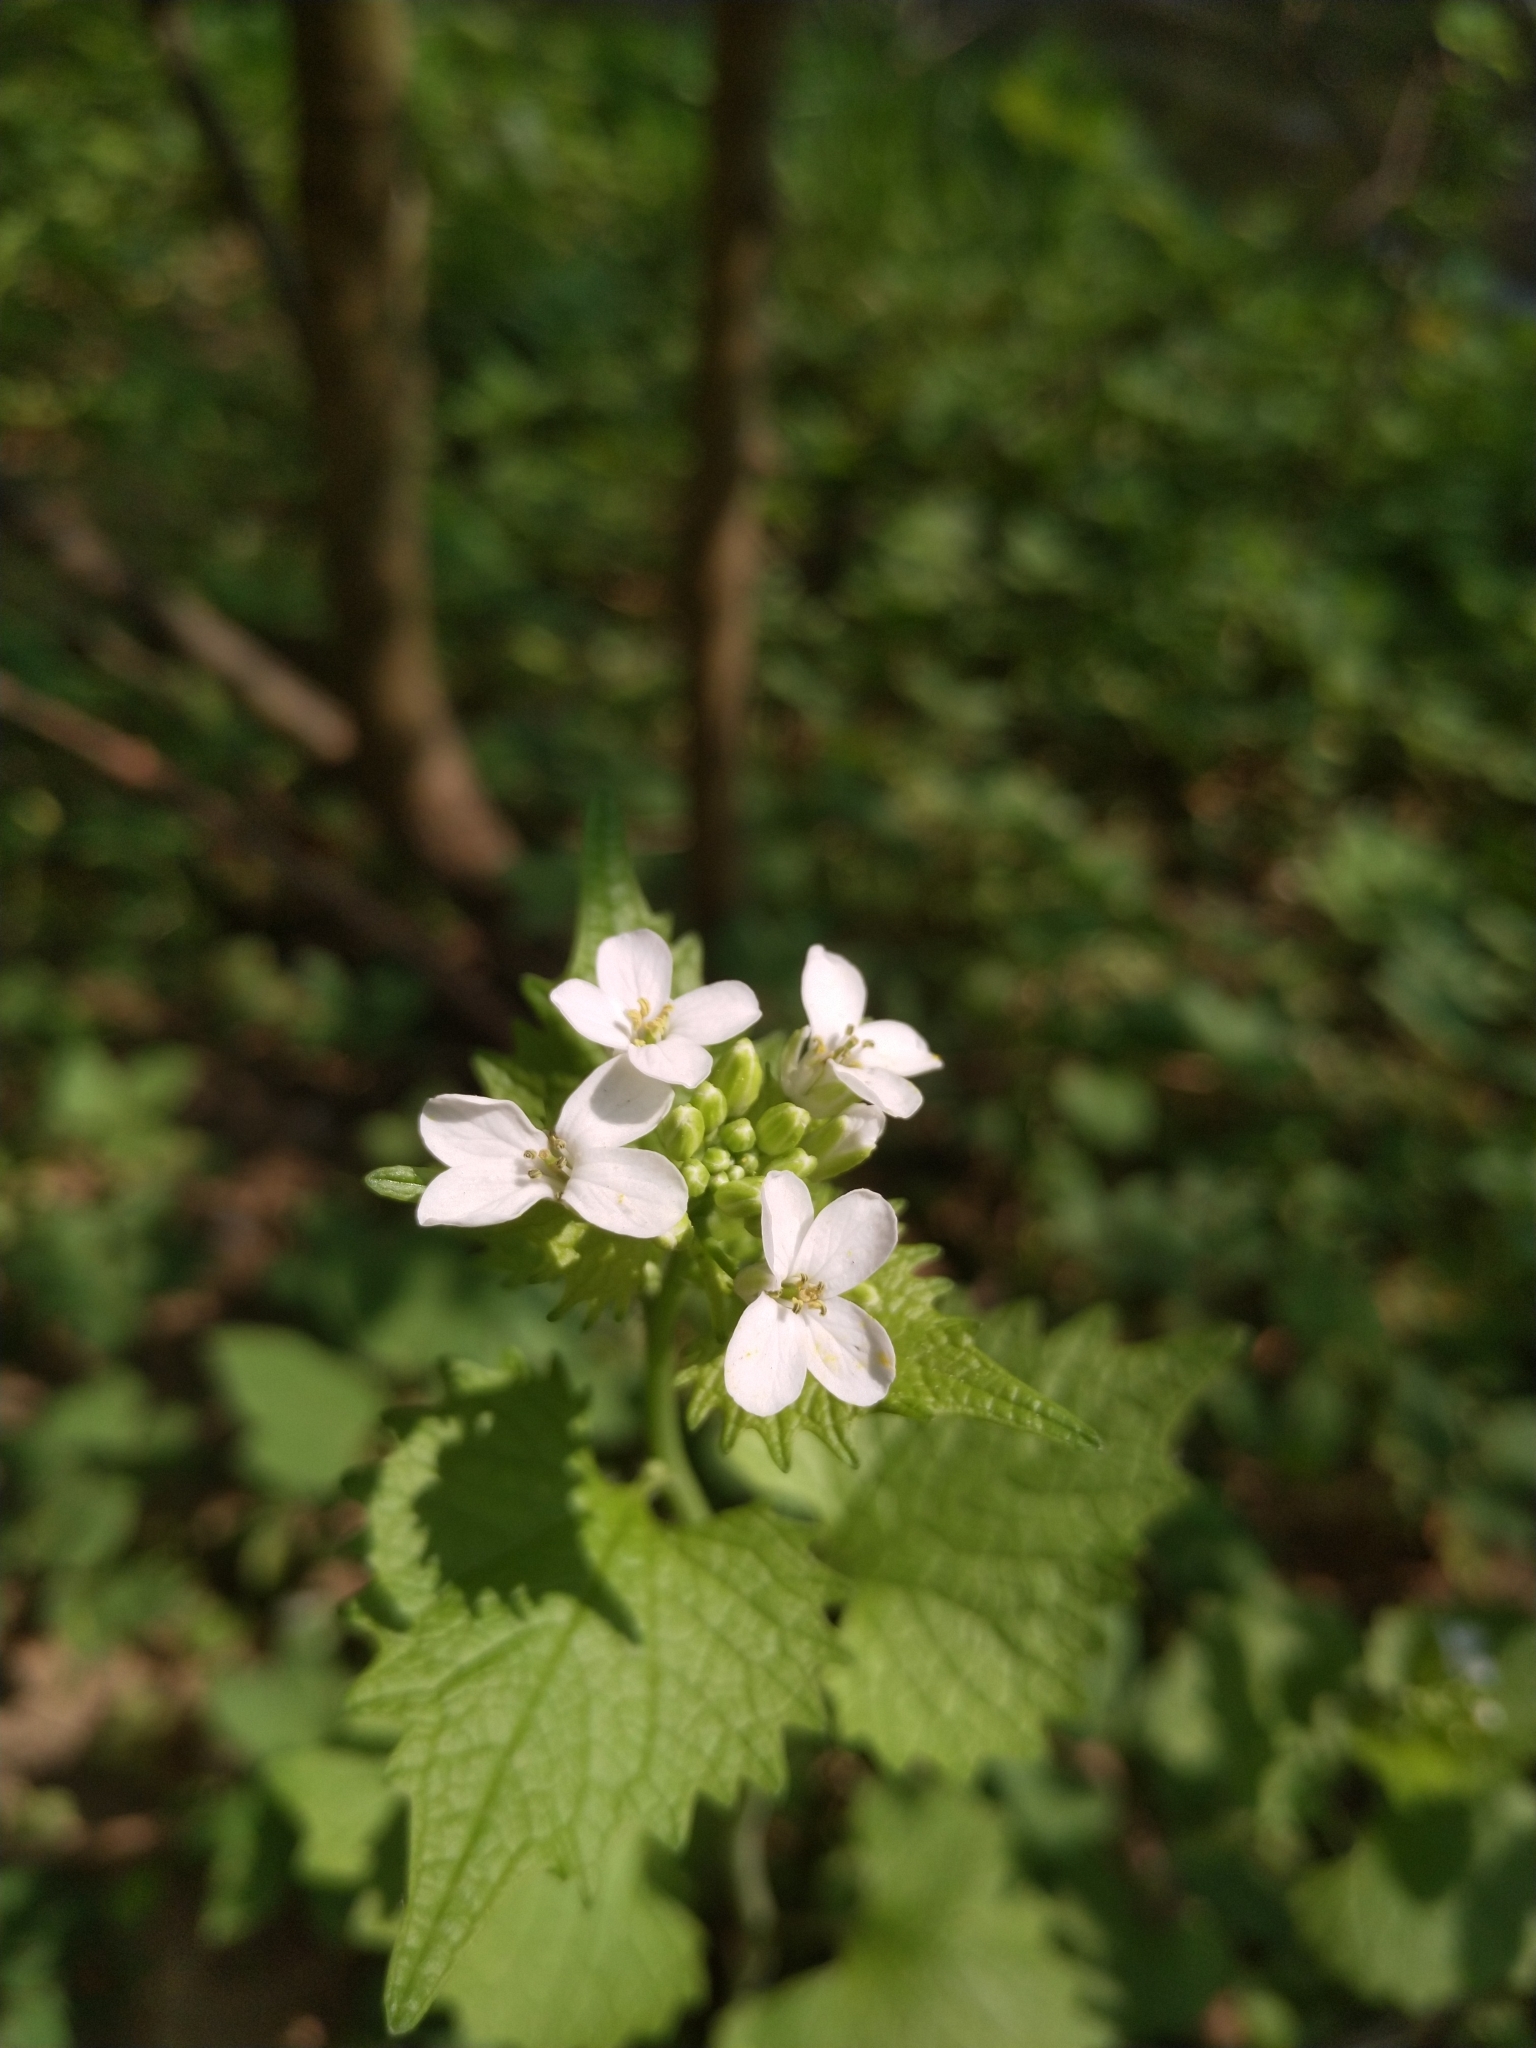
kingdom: Plantae
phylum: Tracheophyta
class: Magnoliopsida
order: Brassicales
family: Brassicaceae
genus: Alliaria
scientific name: Alliaria petiolata
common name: Garlic mustard
